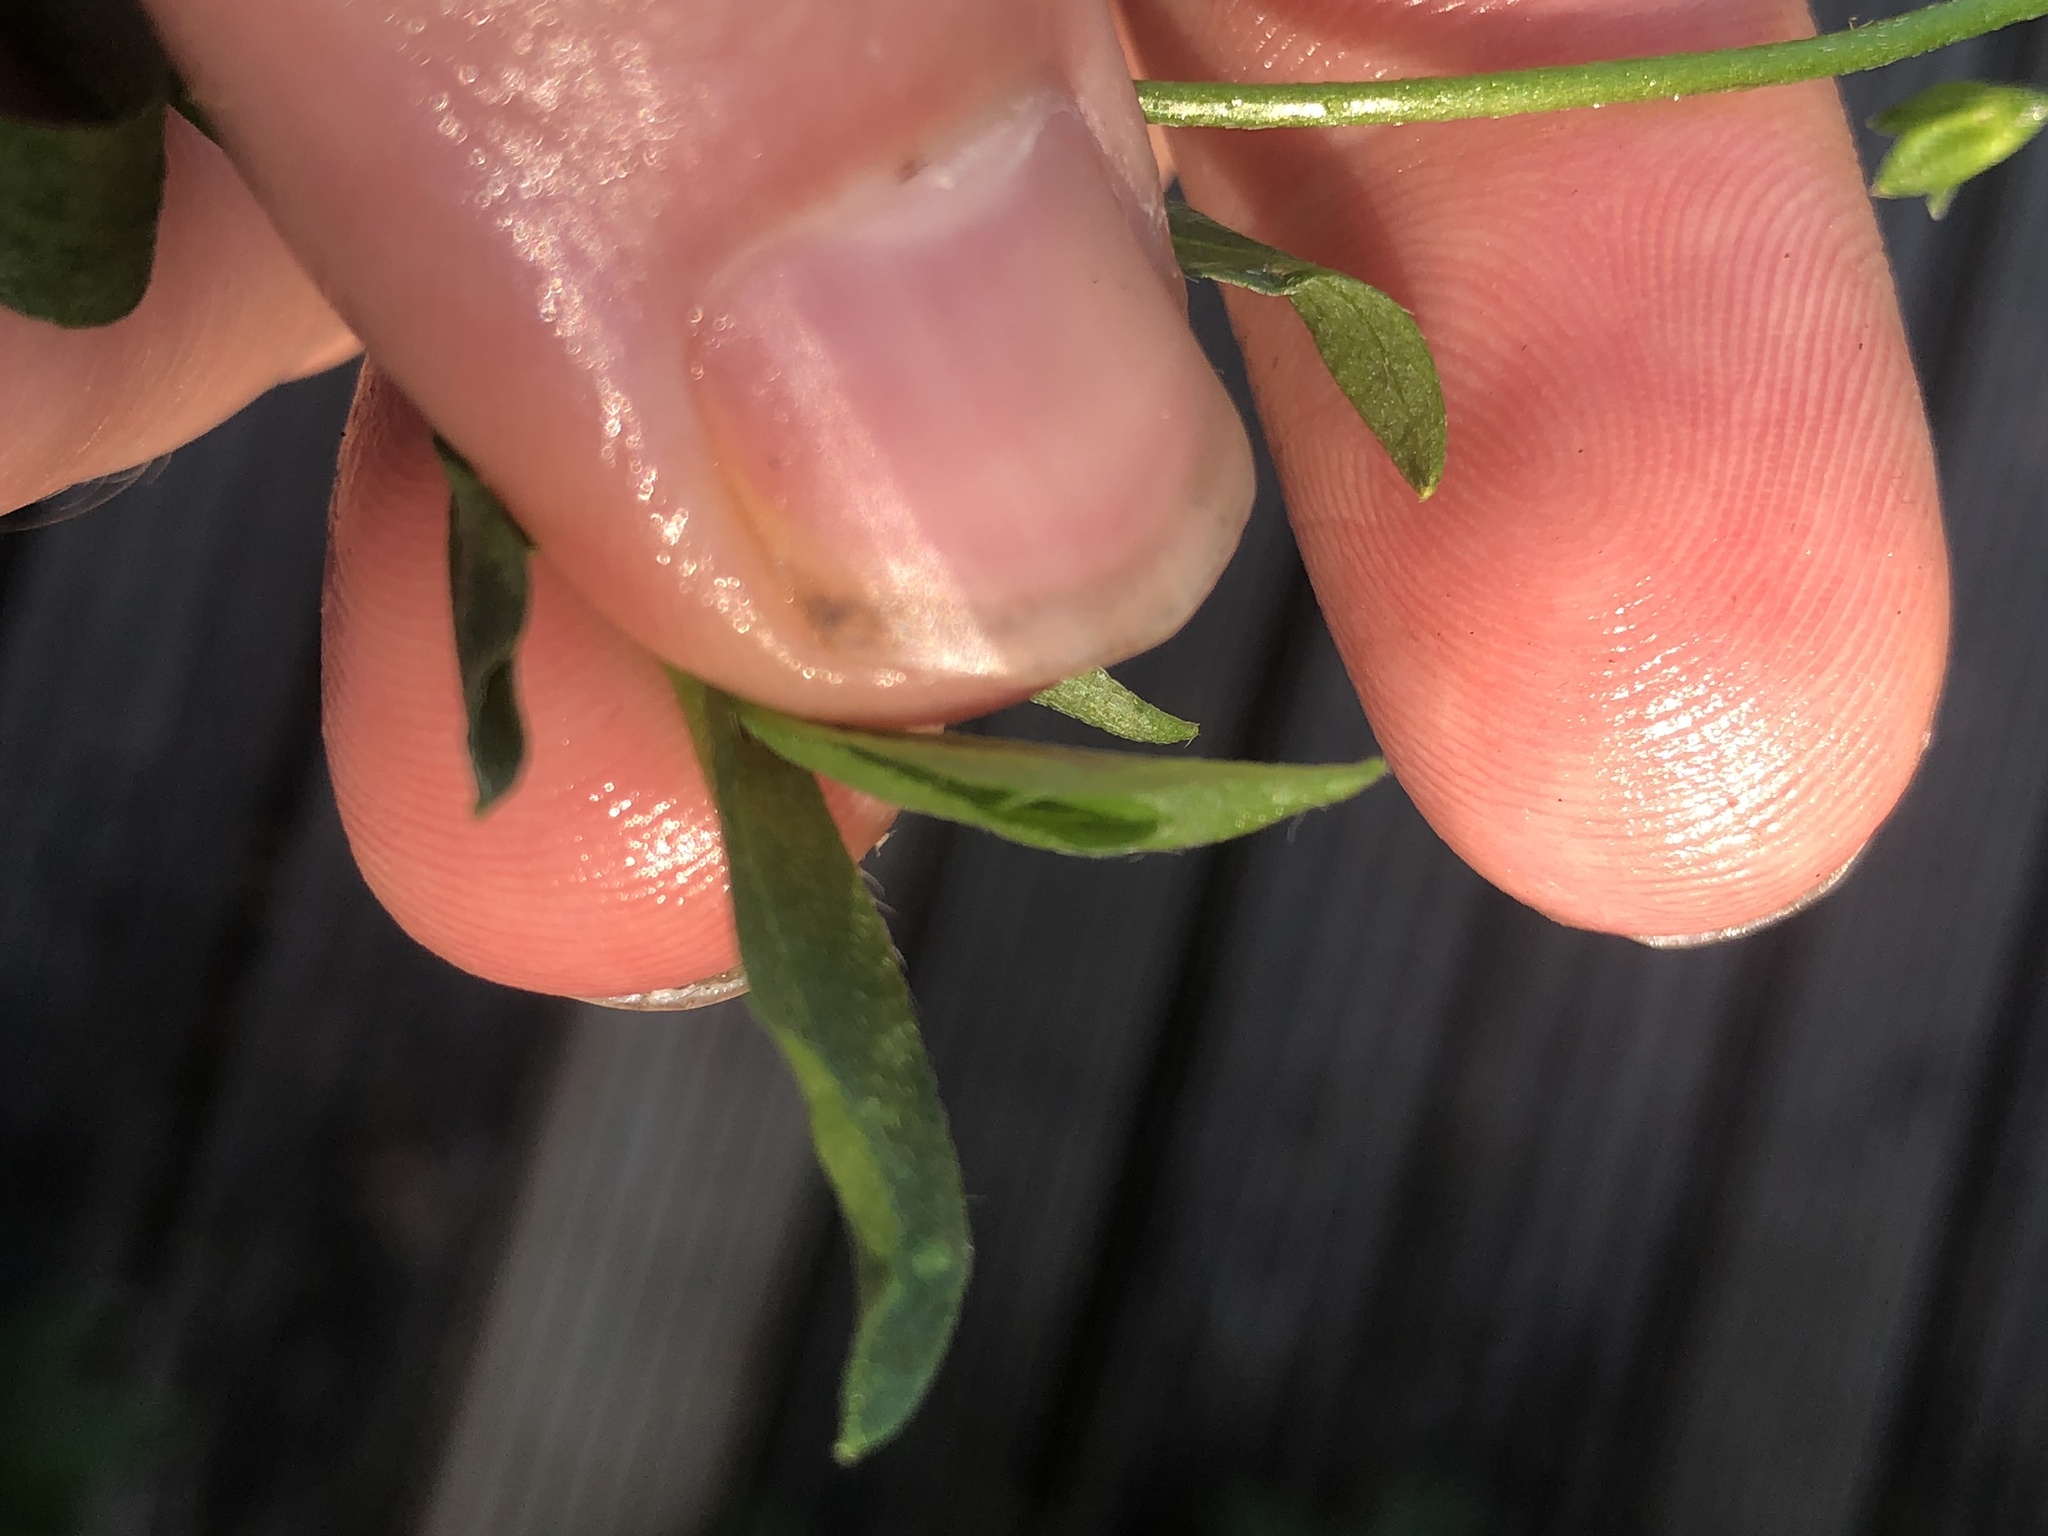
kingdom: Plantae
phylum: Tracheophyta
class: Magnoliopsida
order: Boraginales
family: Boraginaceae
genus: Myosotis
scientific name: Myosotis scorpioides
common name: Water forget-me-not
